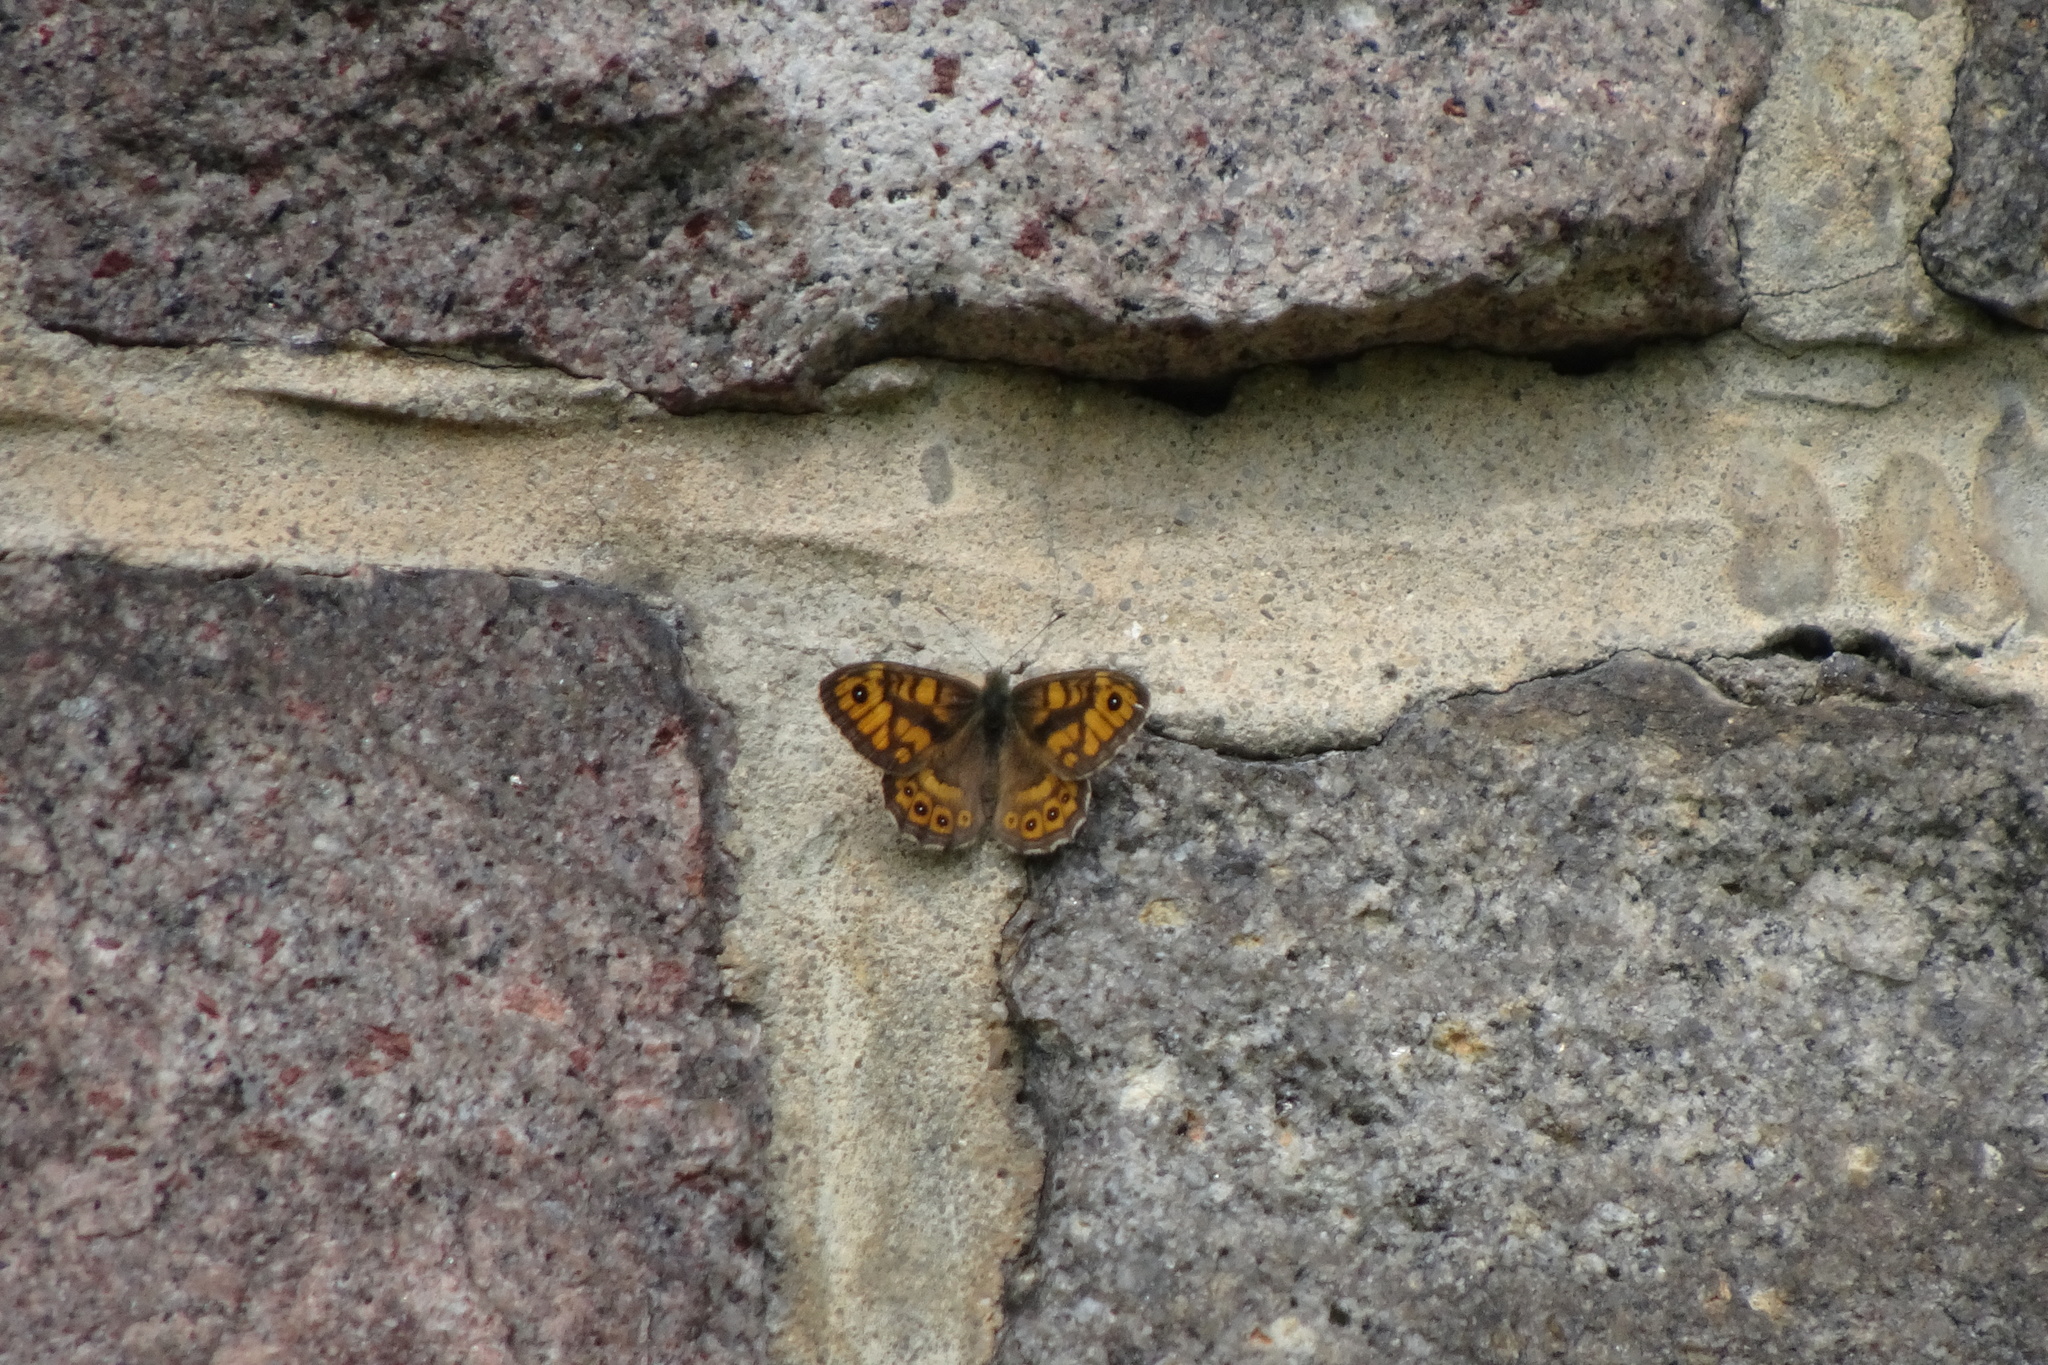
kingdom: Animalia
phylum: Arthropoda
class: Insecta
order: Lepidoptera
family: Nymphalidae
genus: Pararge
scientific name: Pararge Lasiommata megera
